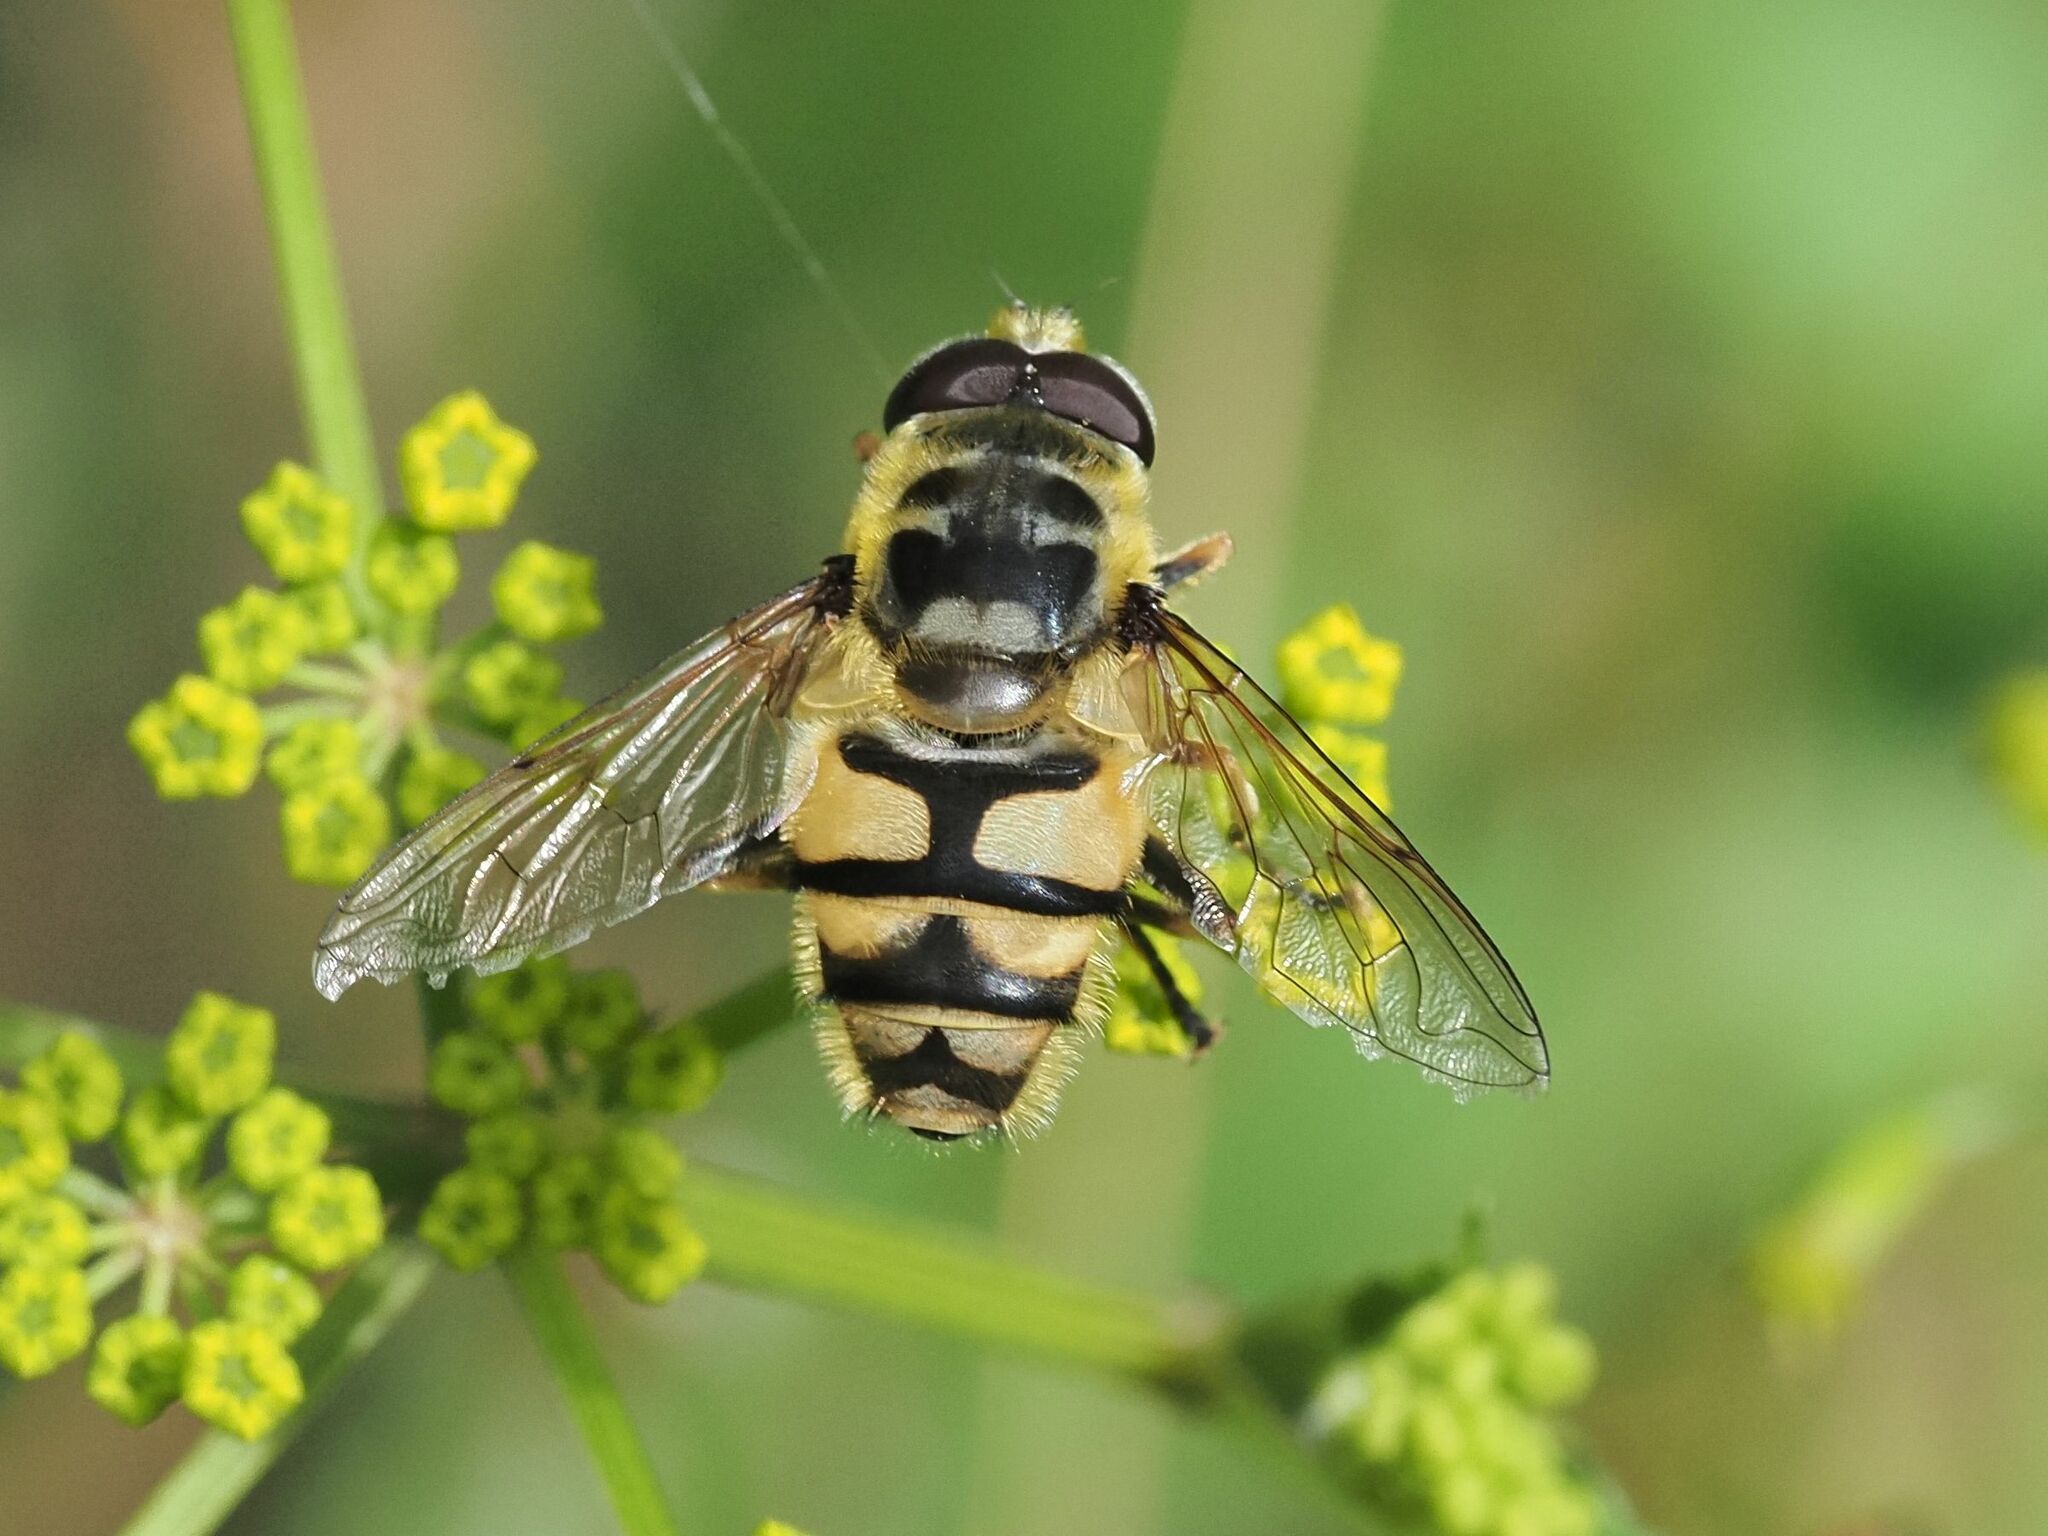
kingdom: Animalia
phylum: Arthropoda
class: Insecta
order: Diptera
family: Syrphidae
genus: Myathropa
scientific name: Myathropa florea
